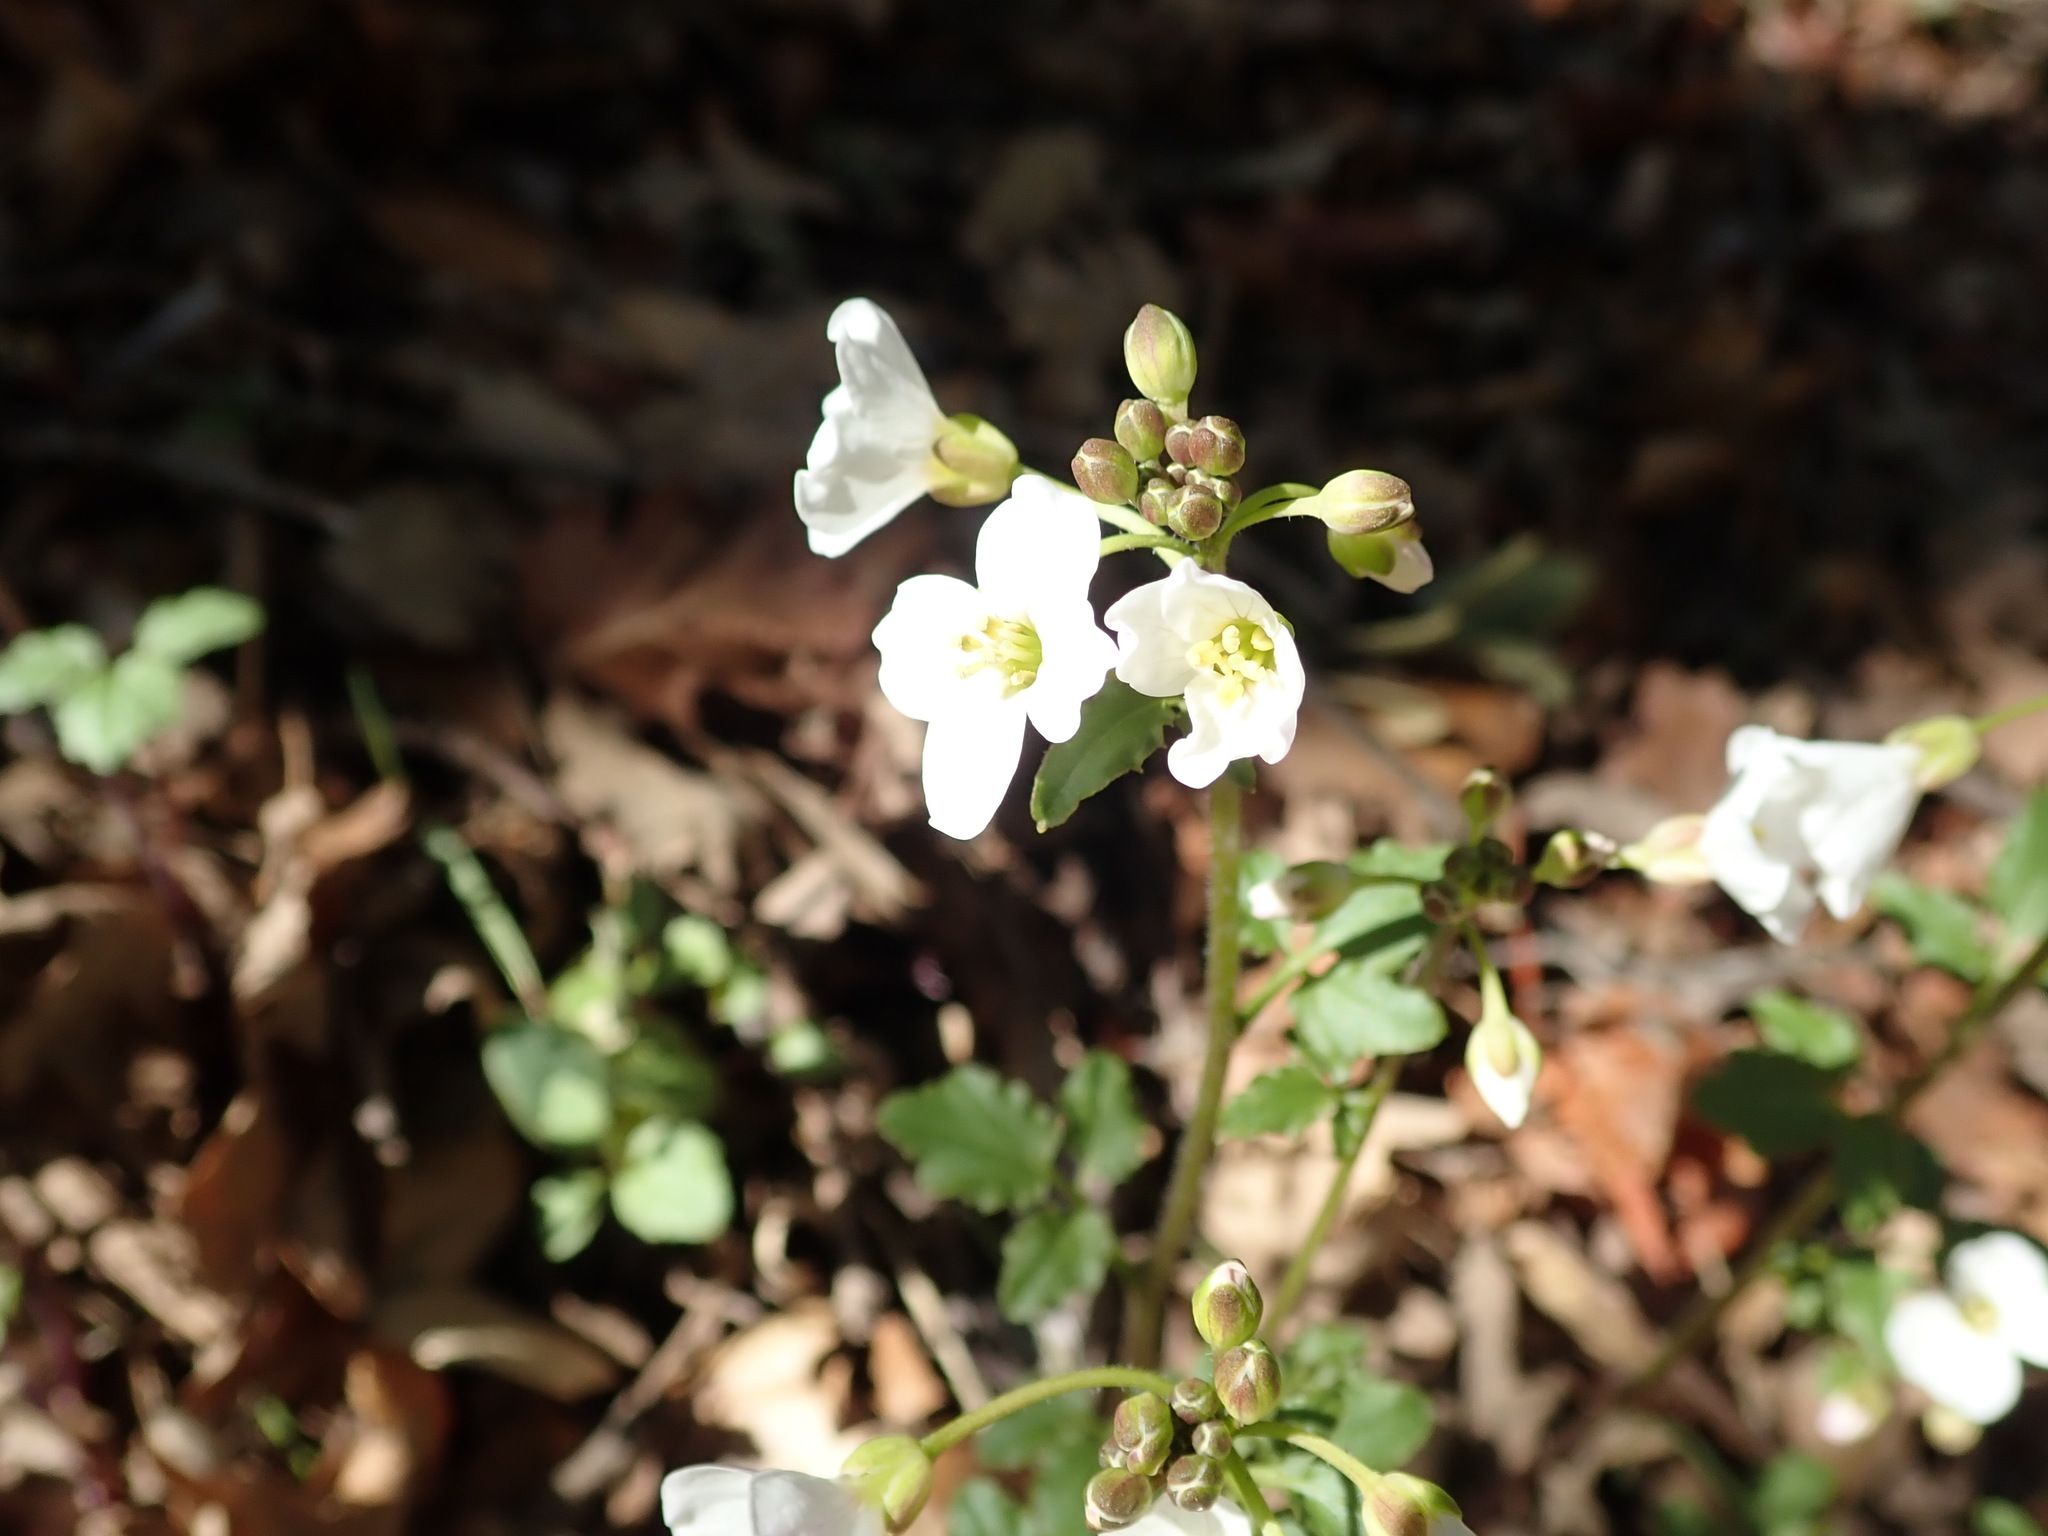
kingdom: Plantae
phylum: Tracheophyta
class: Magnoliopsida
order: Brassicales
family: Brassicaceae
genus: Cardamine
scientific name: Cardamine californica
